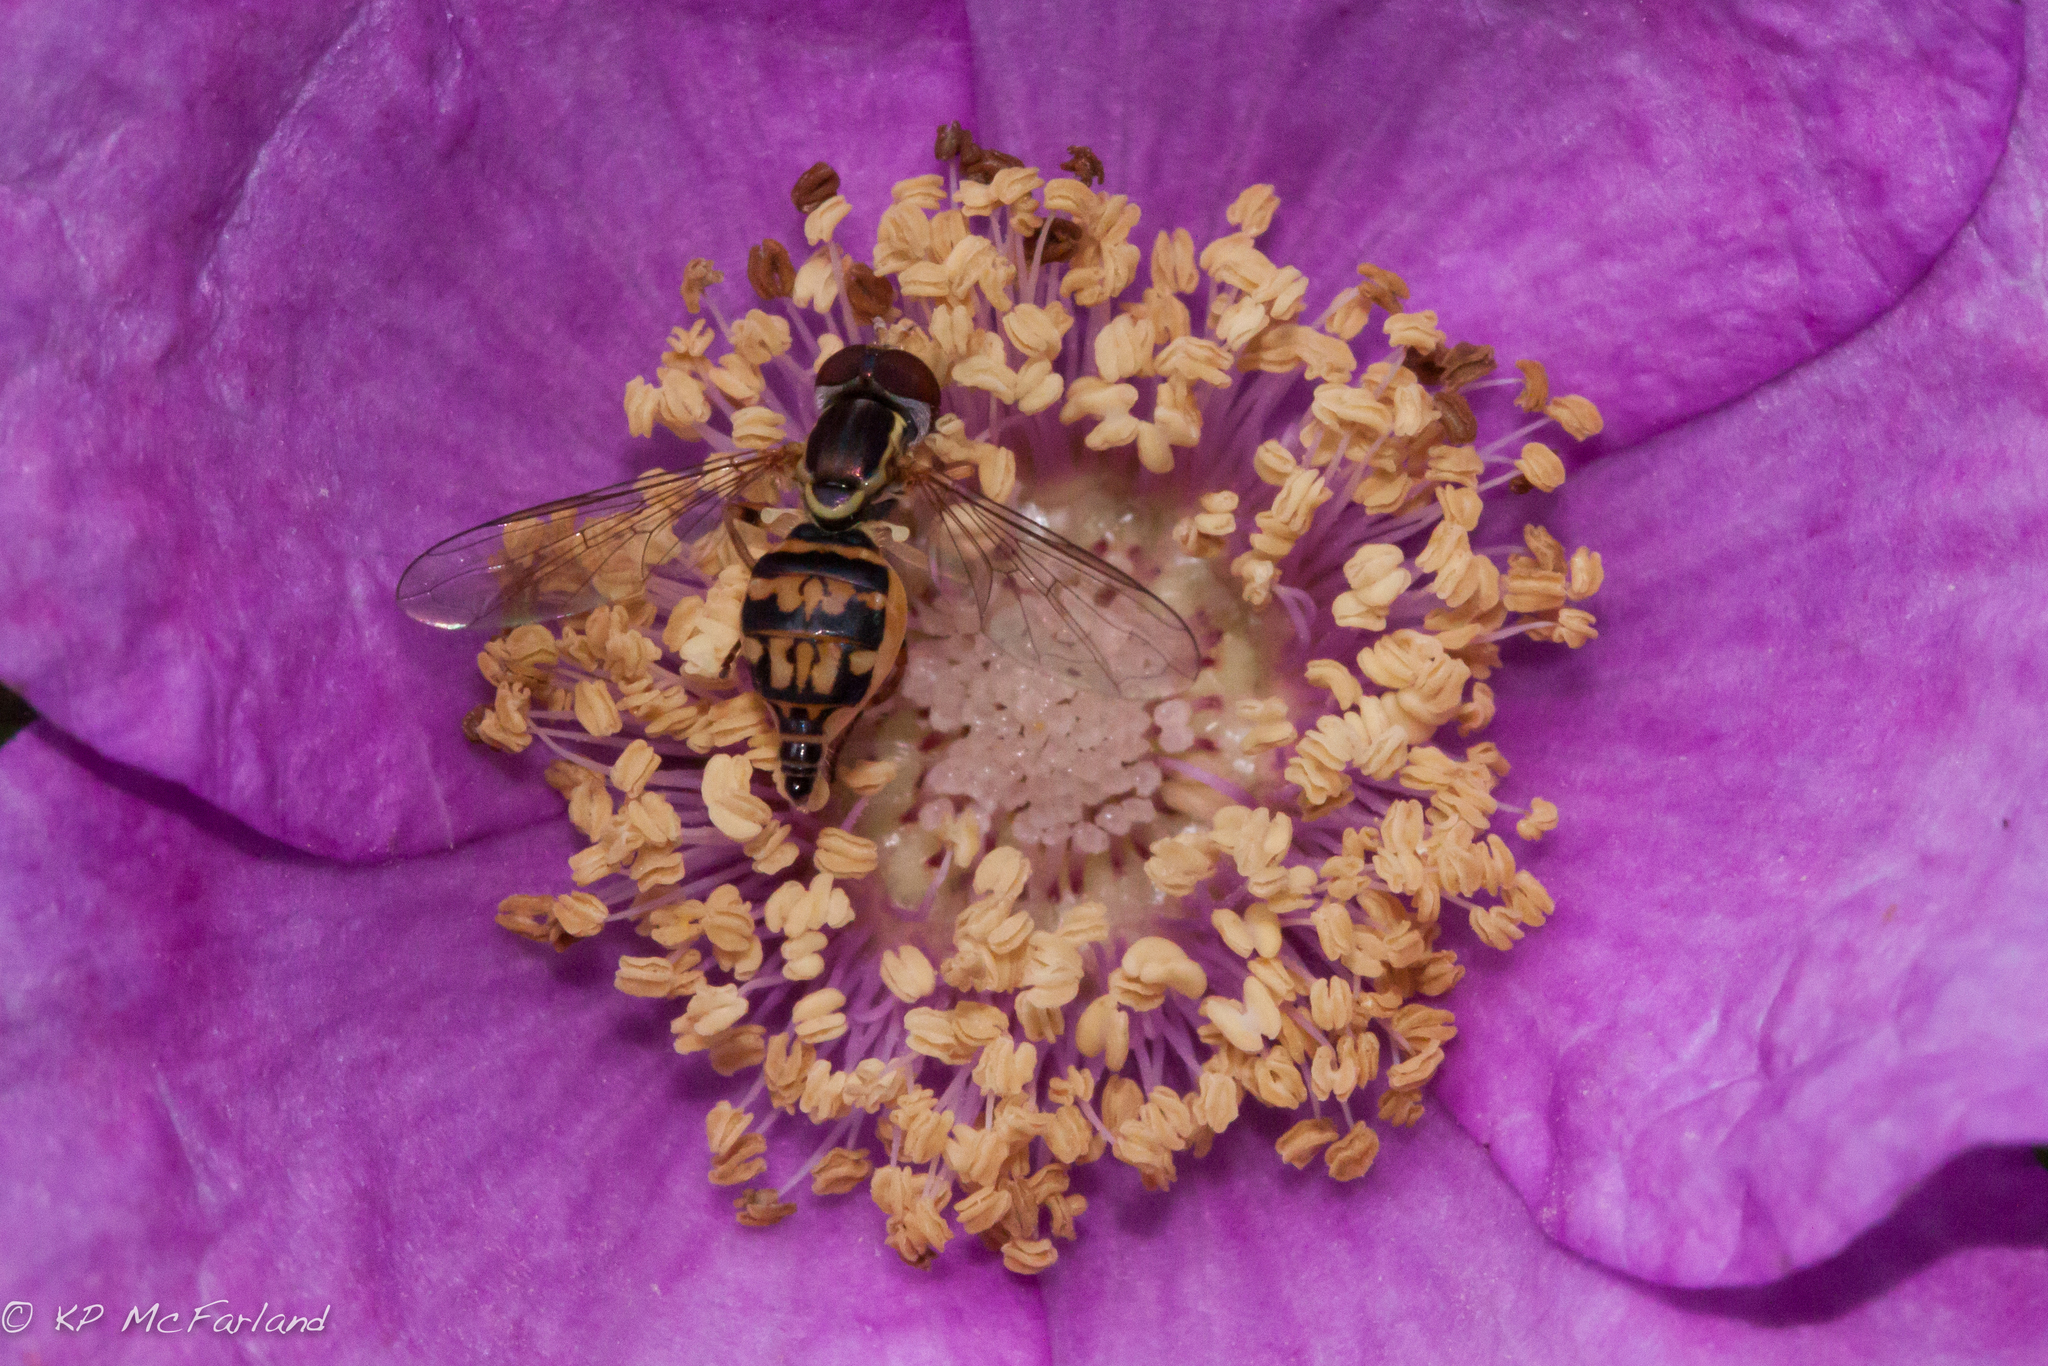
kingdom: Animalia
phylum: Arthropoda
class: Insecta
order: Diptera
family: Syrphidae
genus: Toxomerus
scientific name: Toxomerus geminatus
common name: Eastern calligrapher
